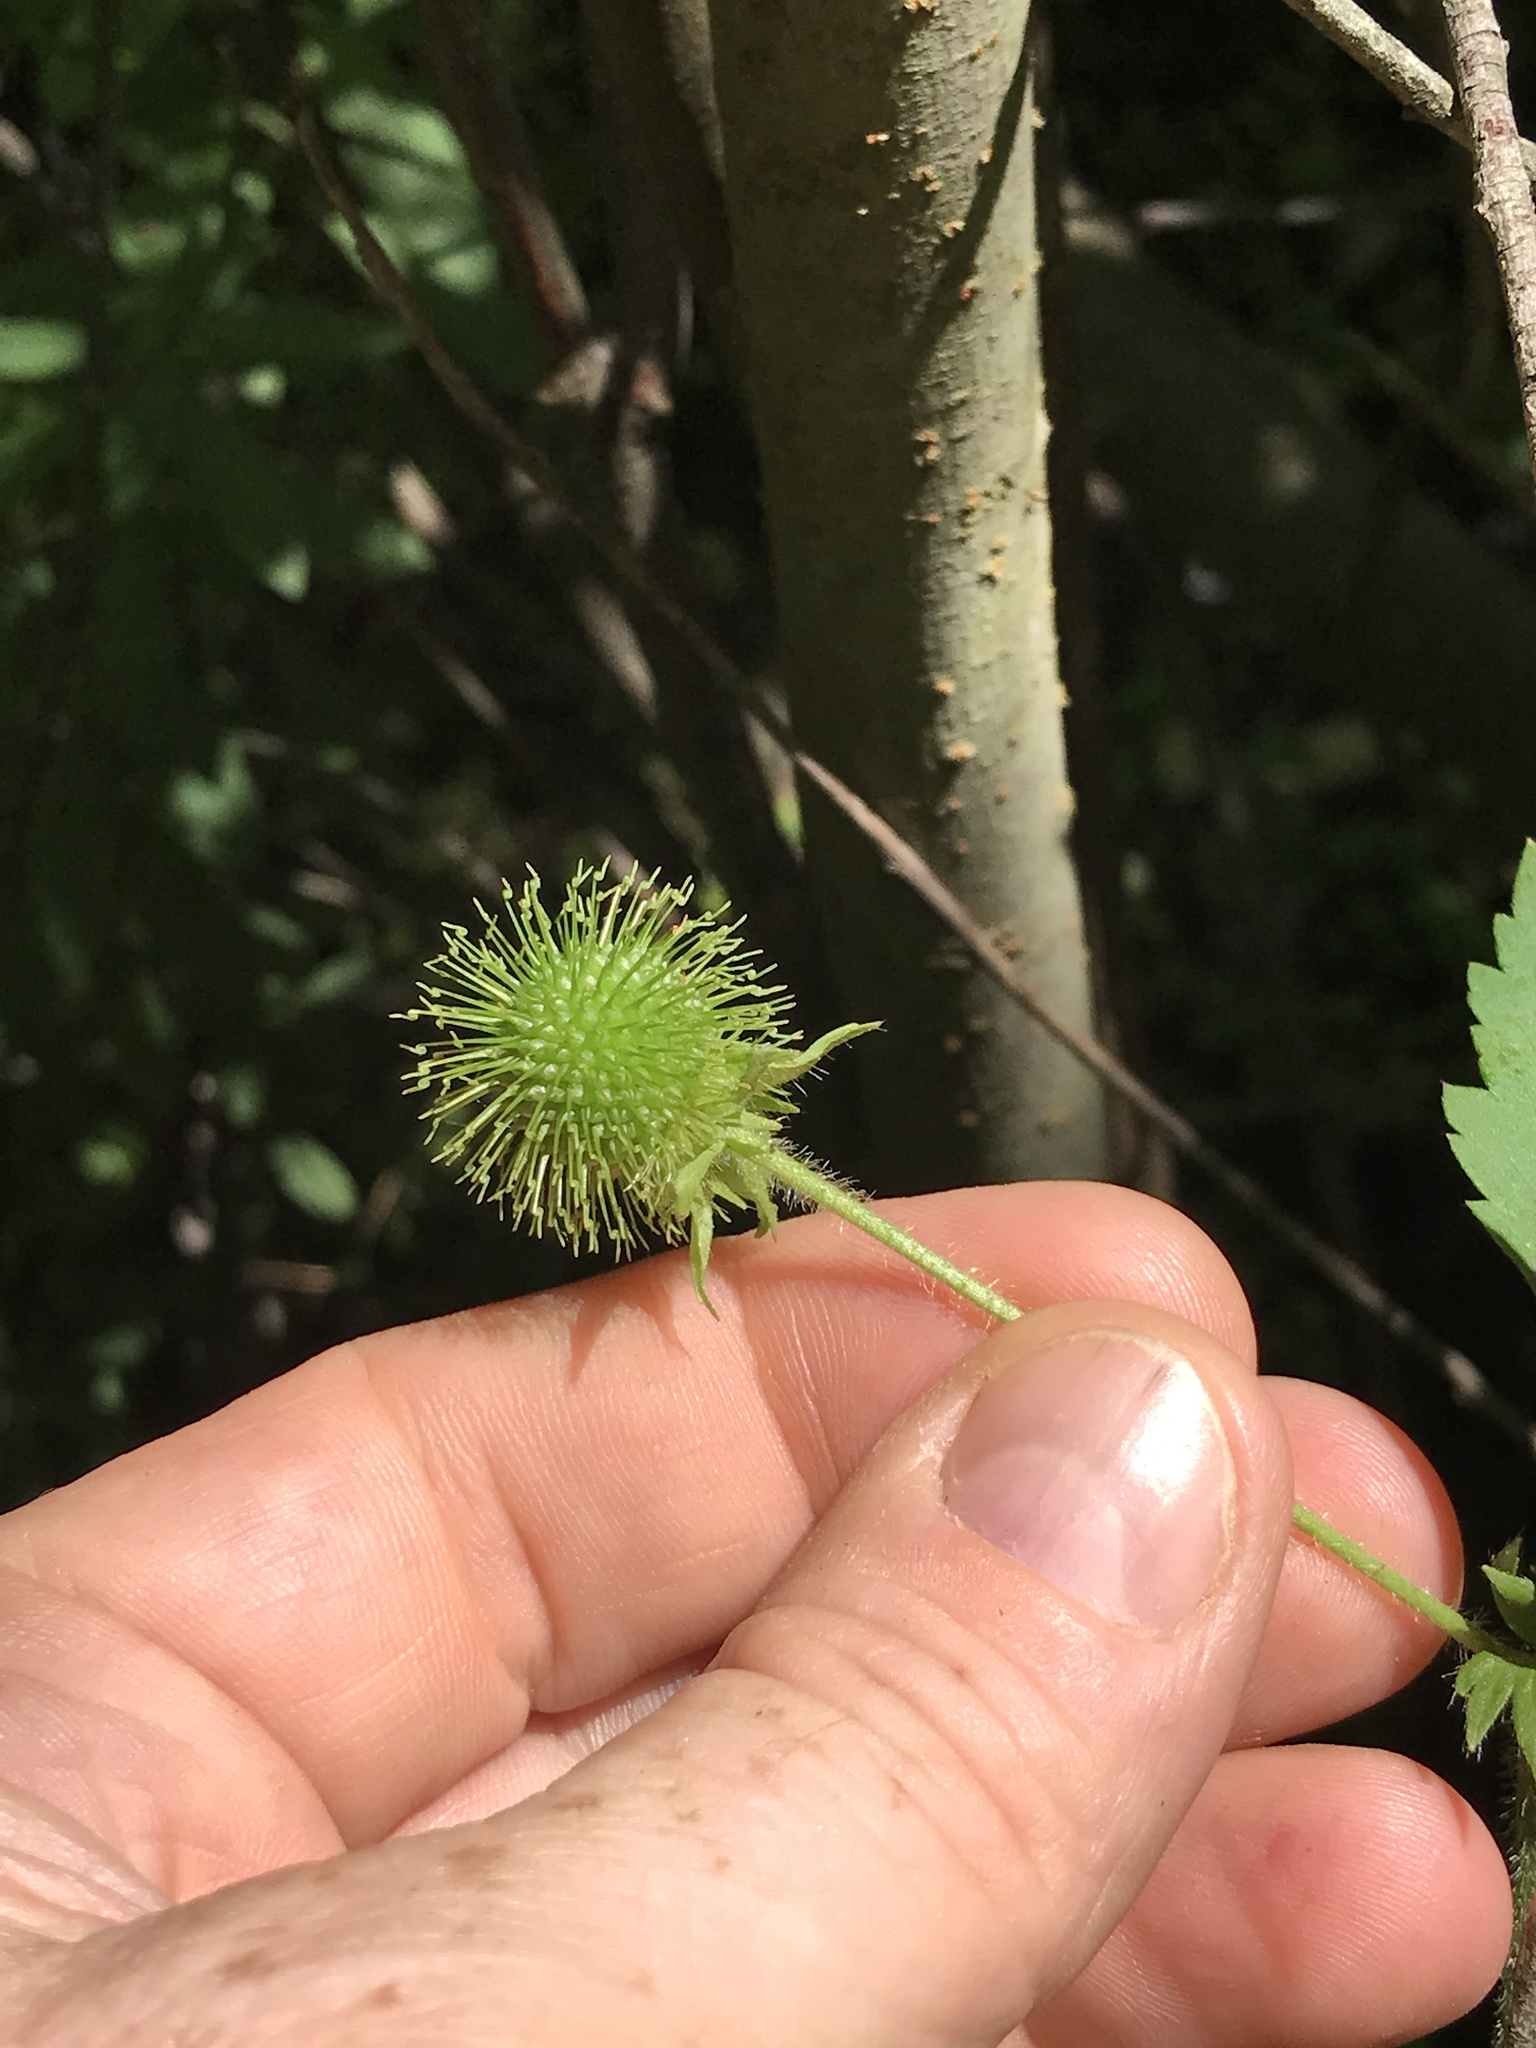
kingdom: Plantae
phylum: Tracheophyta
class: Magnoliopsida
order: Rosales
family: Rosaceae
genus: Geum
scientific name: Geum laciniatum
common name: Rough avens
